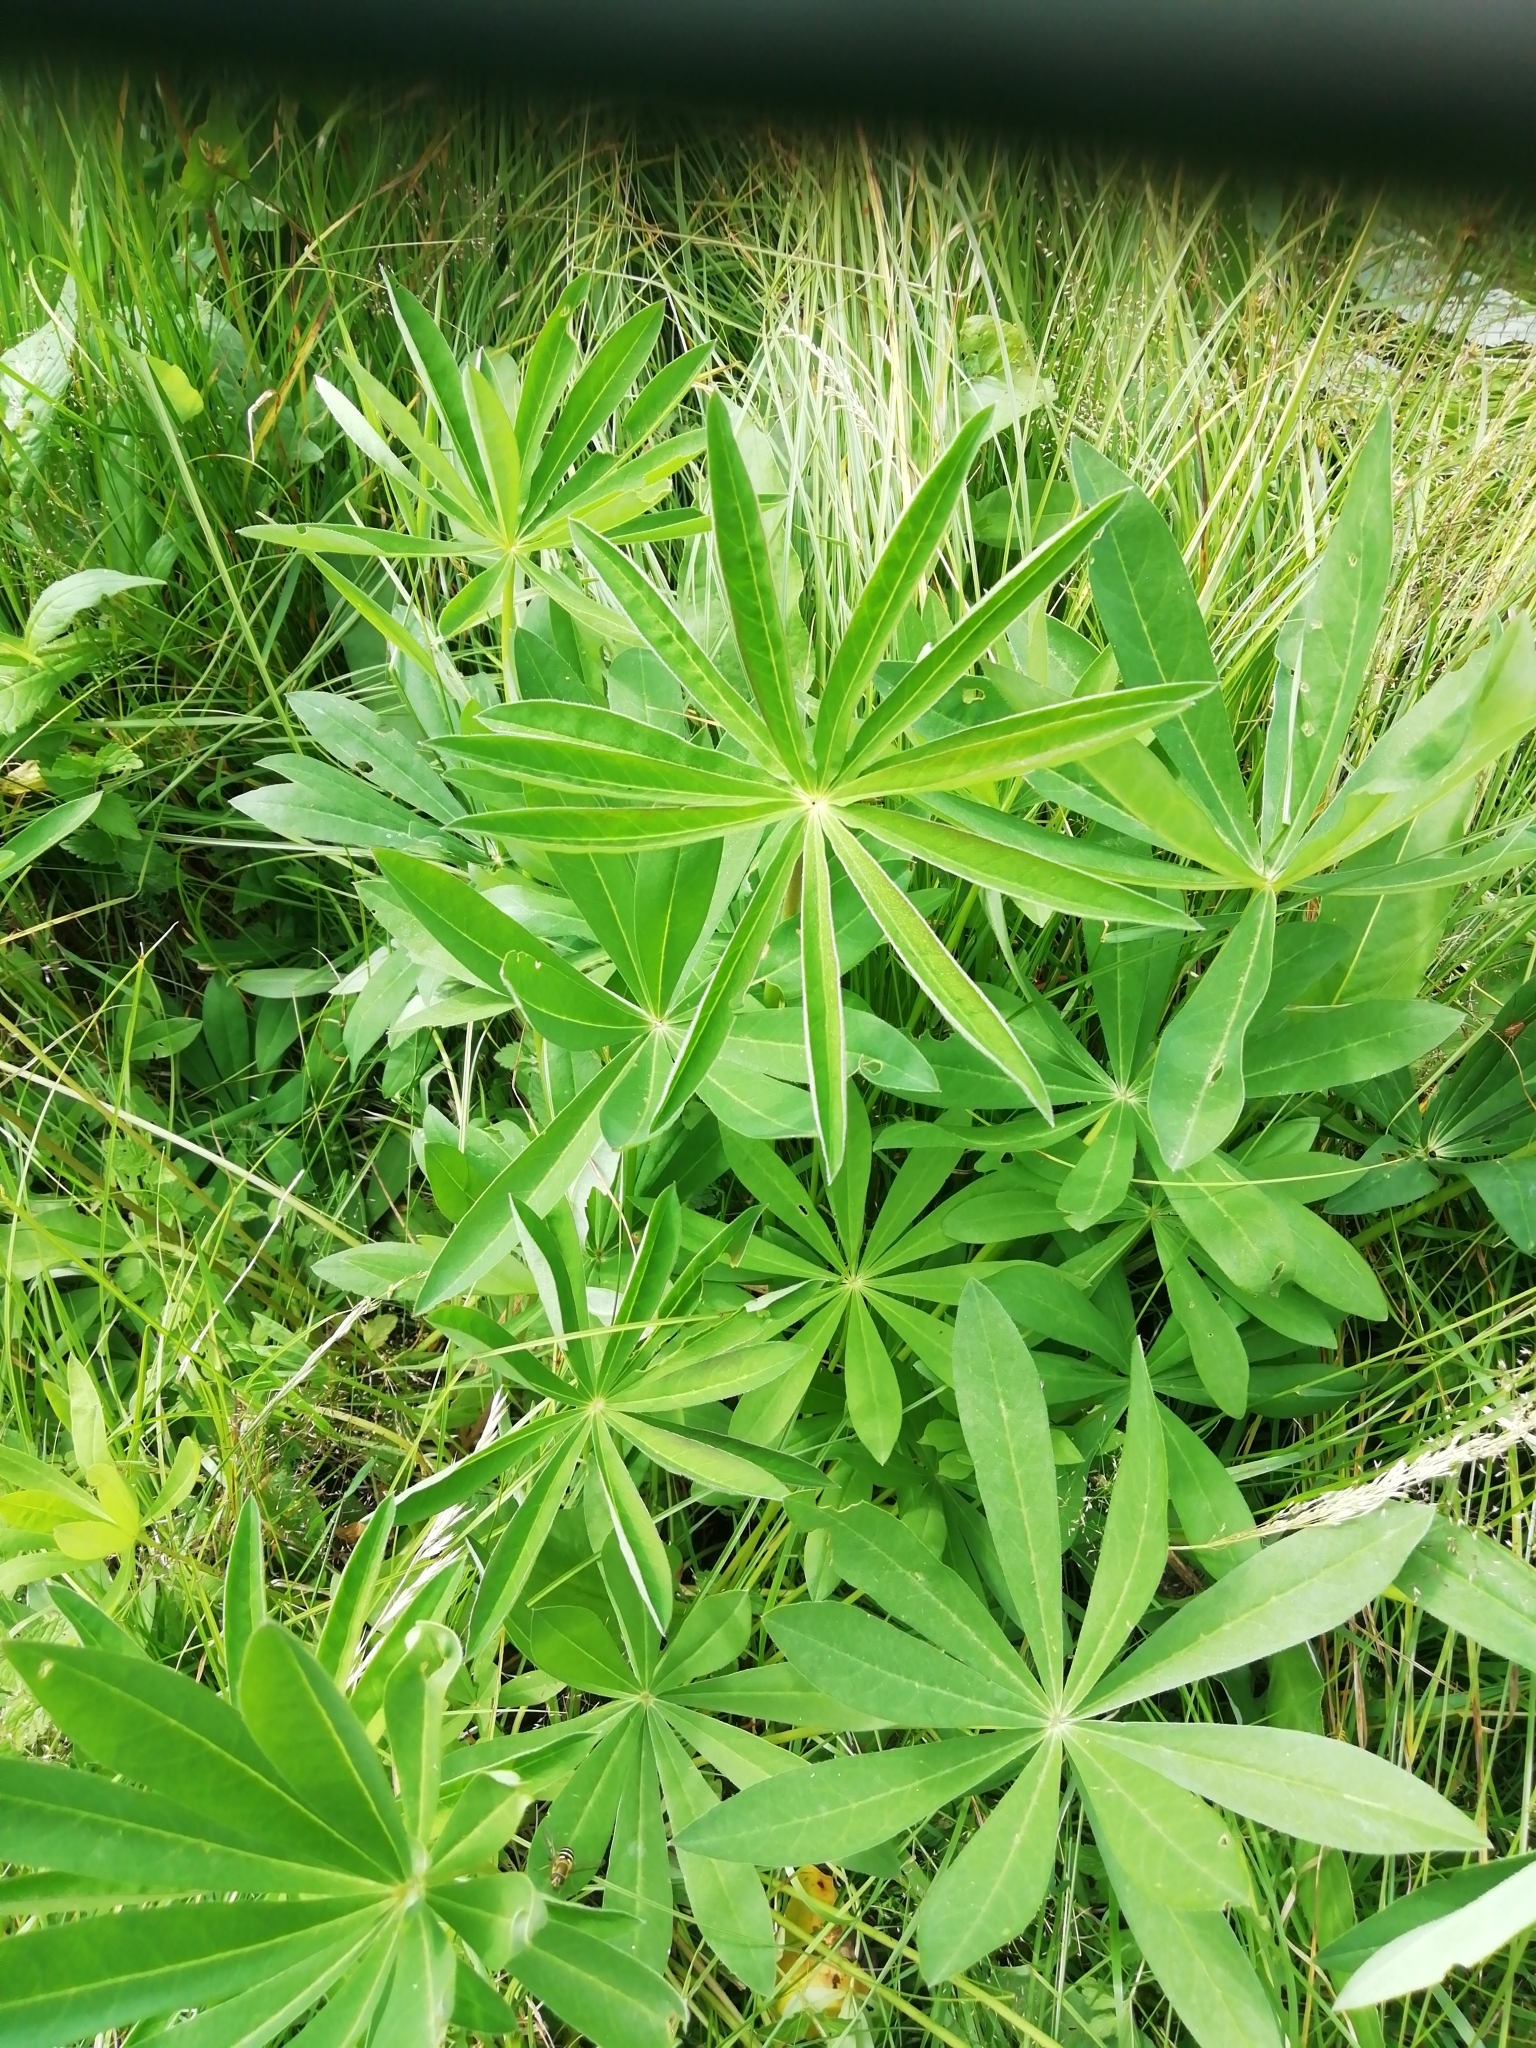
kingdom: Plantae
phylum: Tracheophyta
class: Magnoliopsida
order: Fabales
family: Fabaceae
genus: Lupinus
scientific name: Lupinus polyphyllus
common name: Garden lupin
